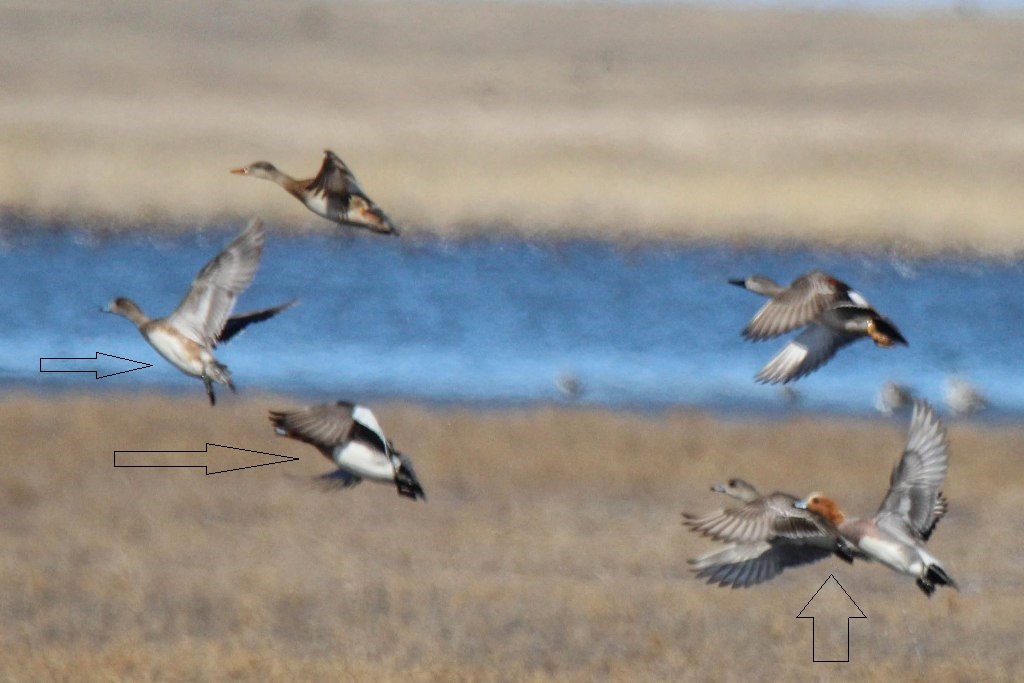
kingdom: Animalia
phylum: Chordata
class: Aves
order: Anseriformes
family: Anatidae
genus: Mareca
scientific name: Mareca penelope
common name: Eurasian wigeon
